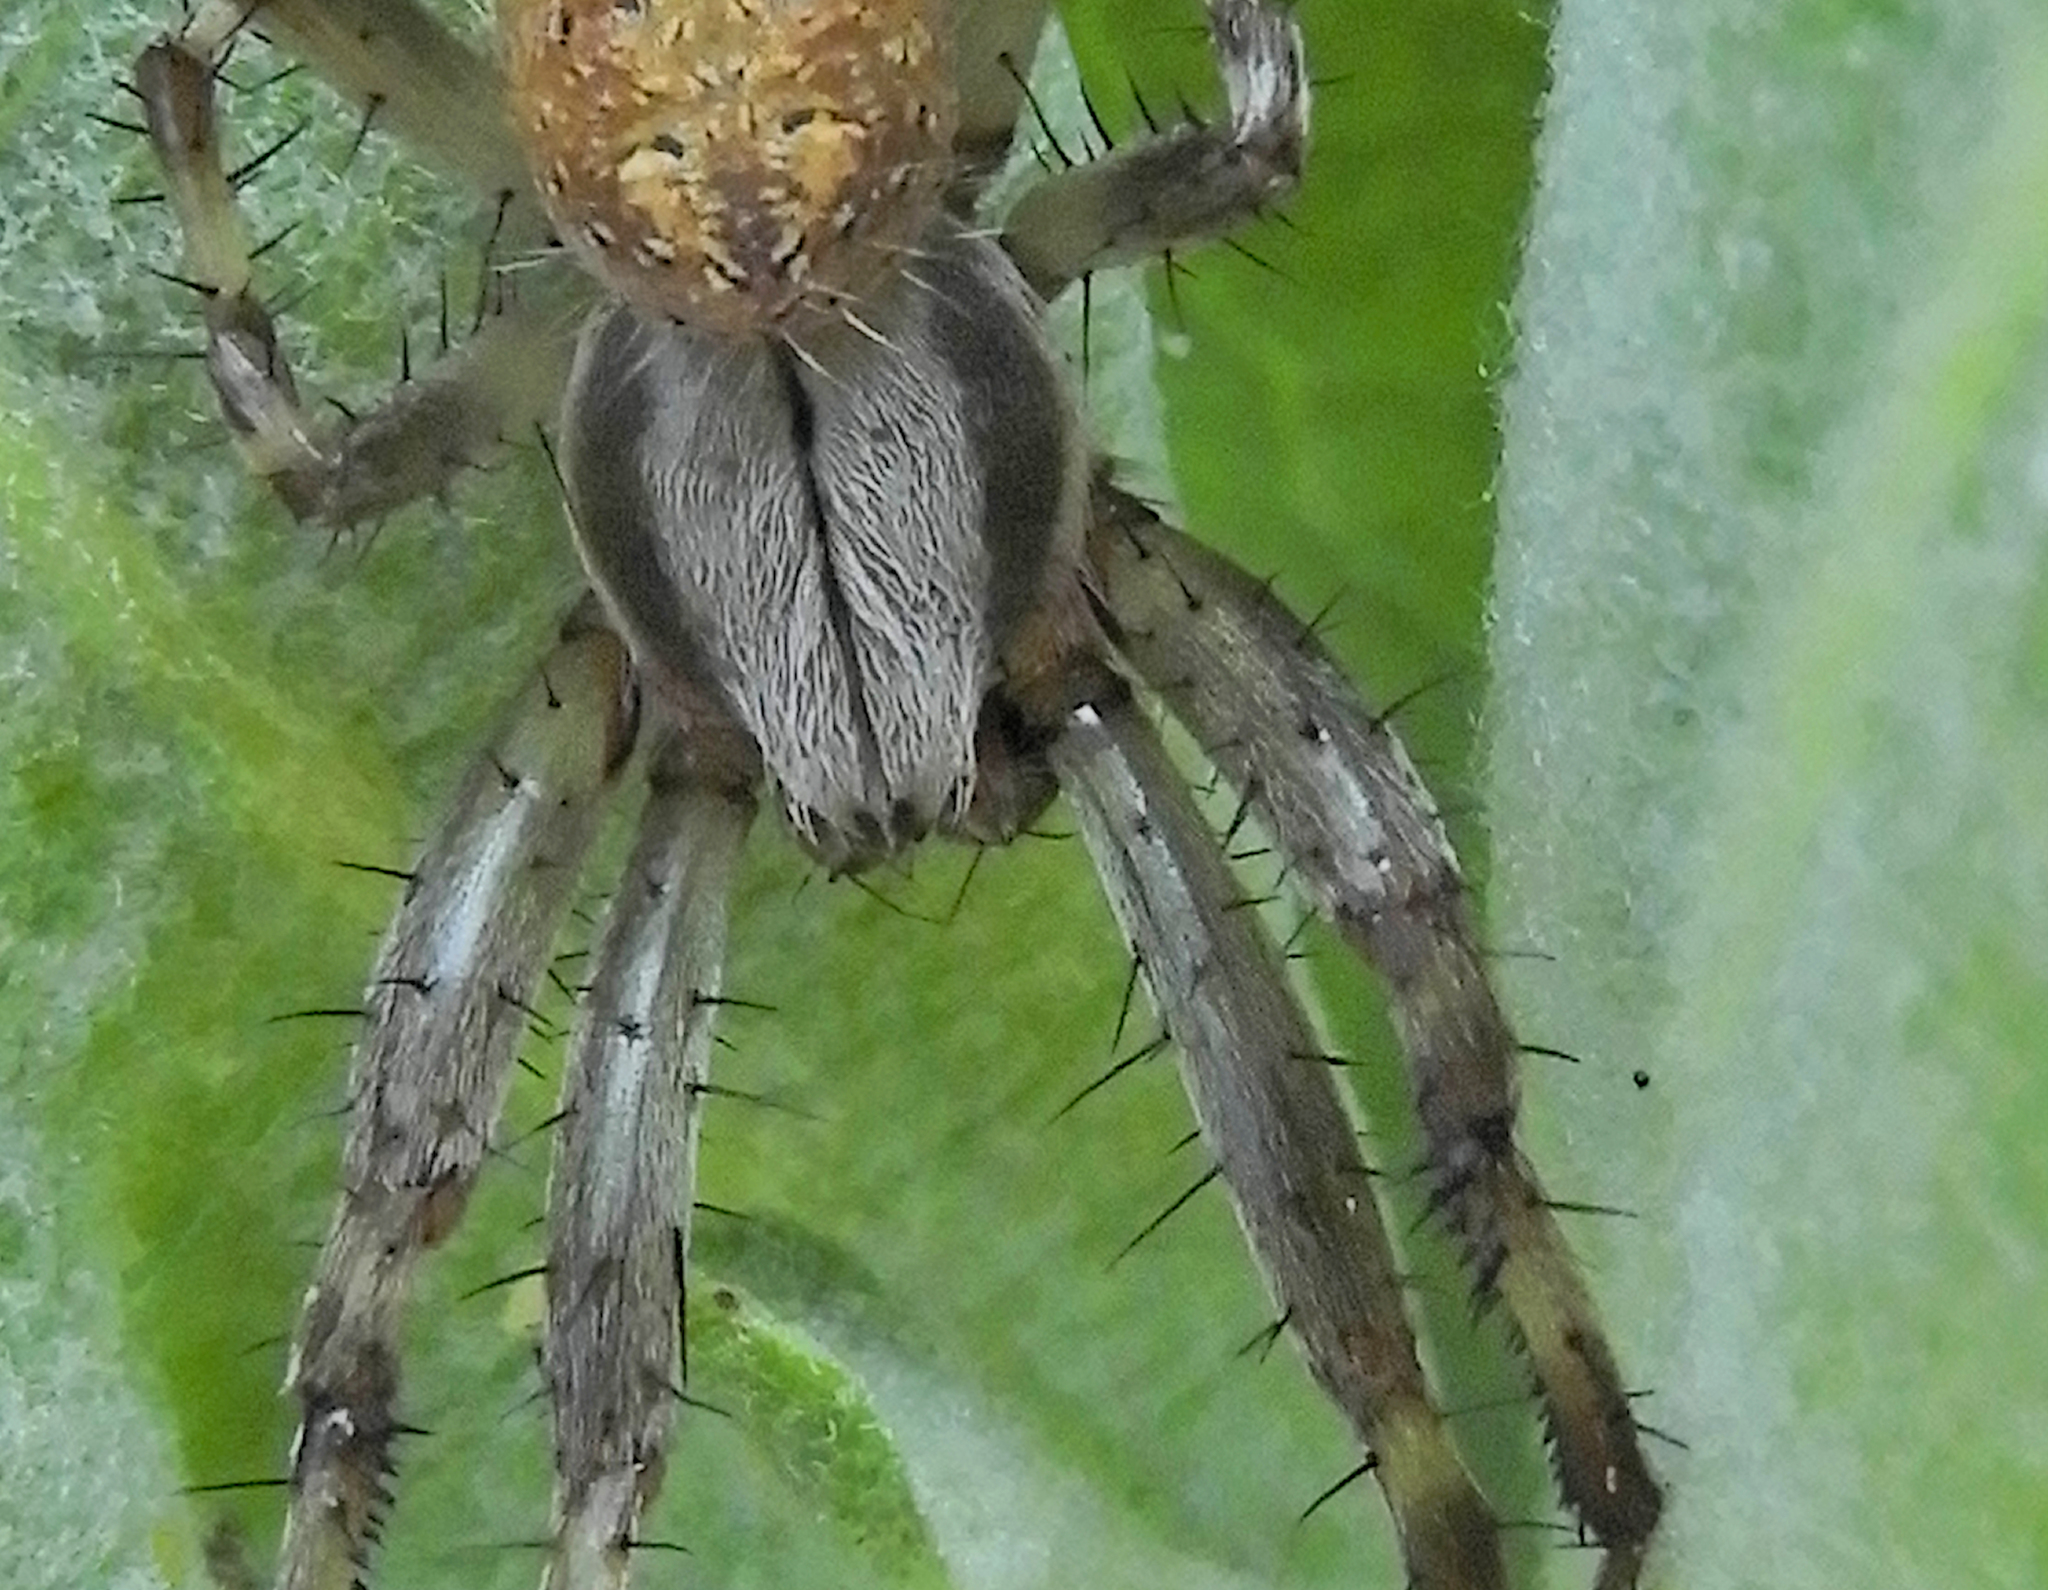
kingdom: Animalia
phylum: Arthropoda
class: Arachnida
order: Araneae
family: Araneidae
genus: Neoscona
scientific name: Neoscona oaxacensis
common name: Orb weavers
